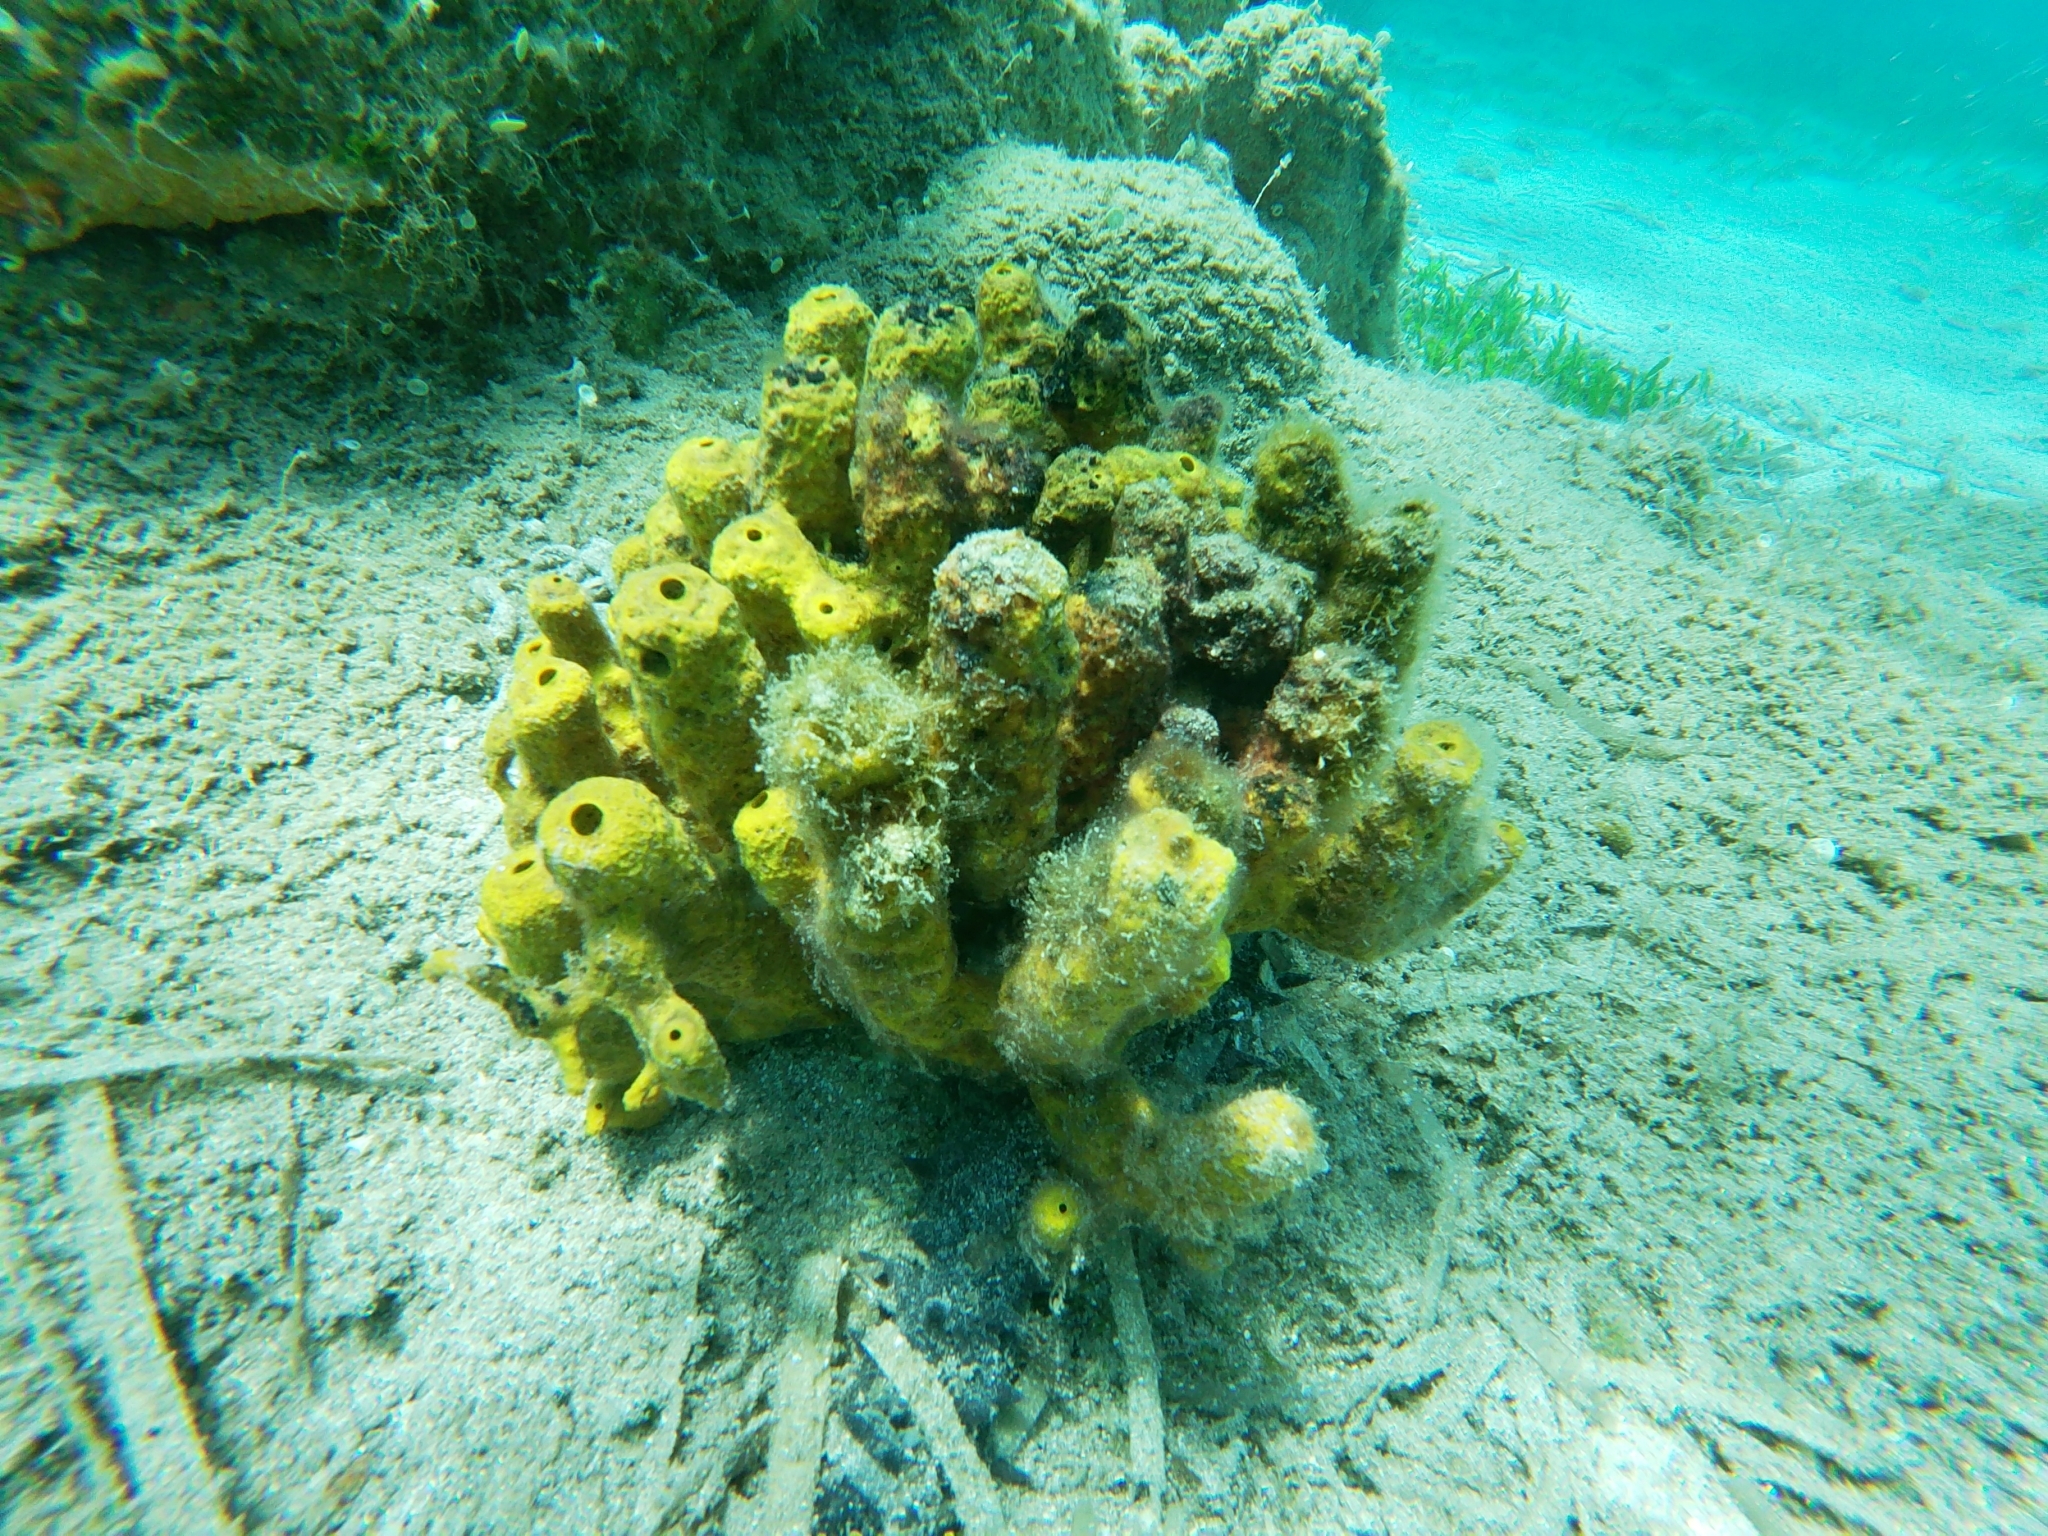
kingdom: Animalia
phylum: Porifera
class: Demospongiae
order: Verongiida
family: Aplysinidae
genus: Aplysina
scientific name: Aplysina aerophoba
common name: Aureate sponge
